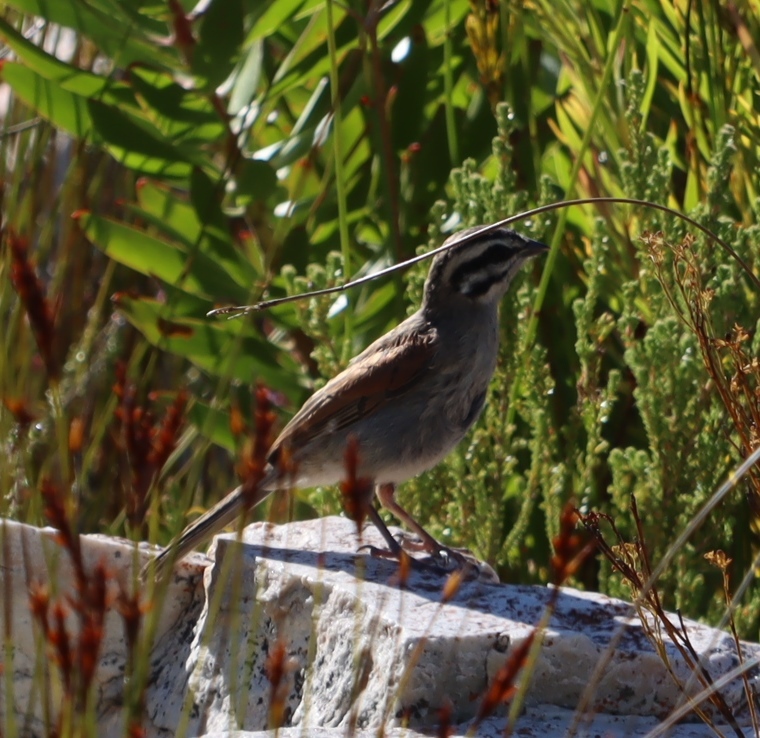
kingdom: Animalia
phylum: Chordata
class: Aves
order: Passeriformes
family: Emberizidae
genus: Emberiza
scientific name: Emberiza capensis
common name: Cape bunting
